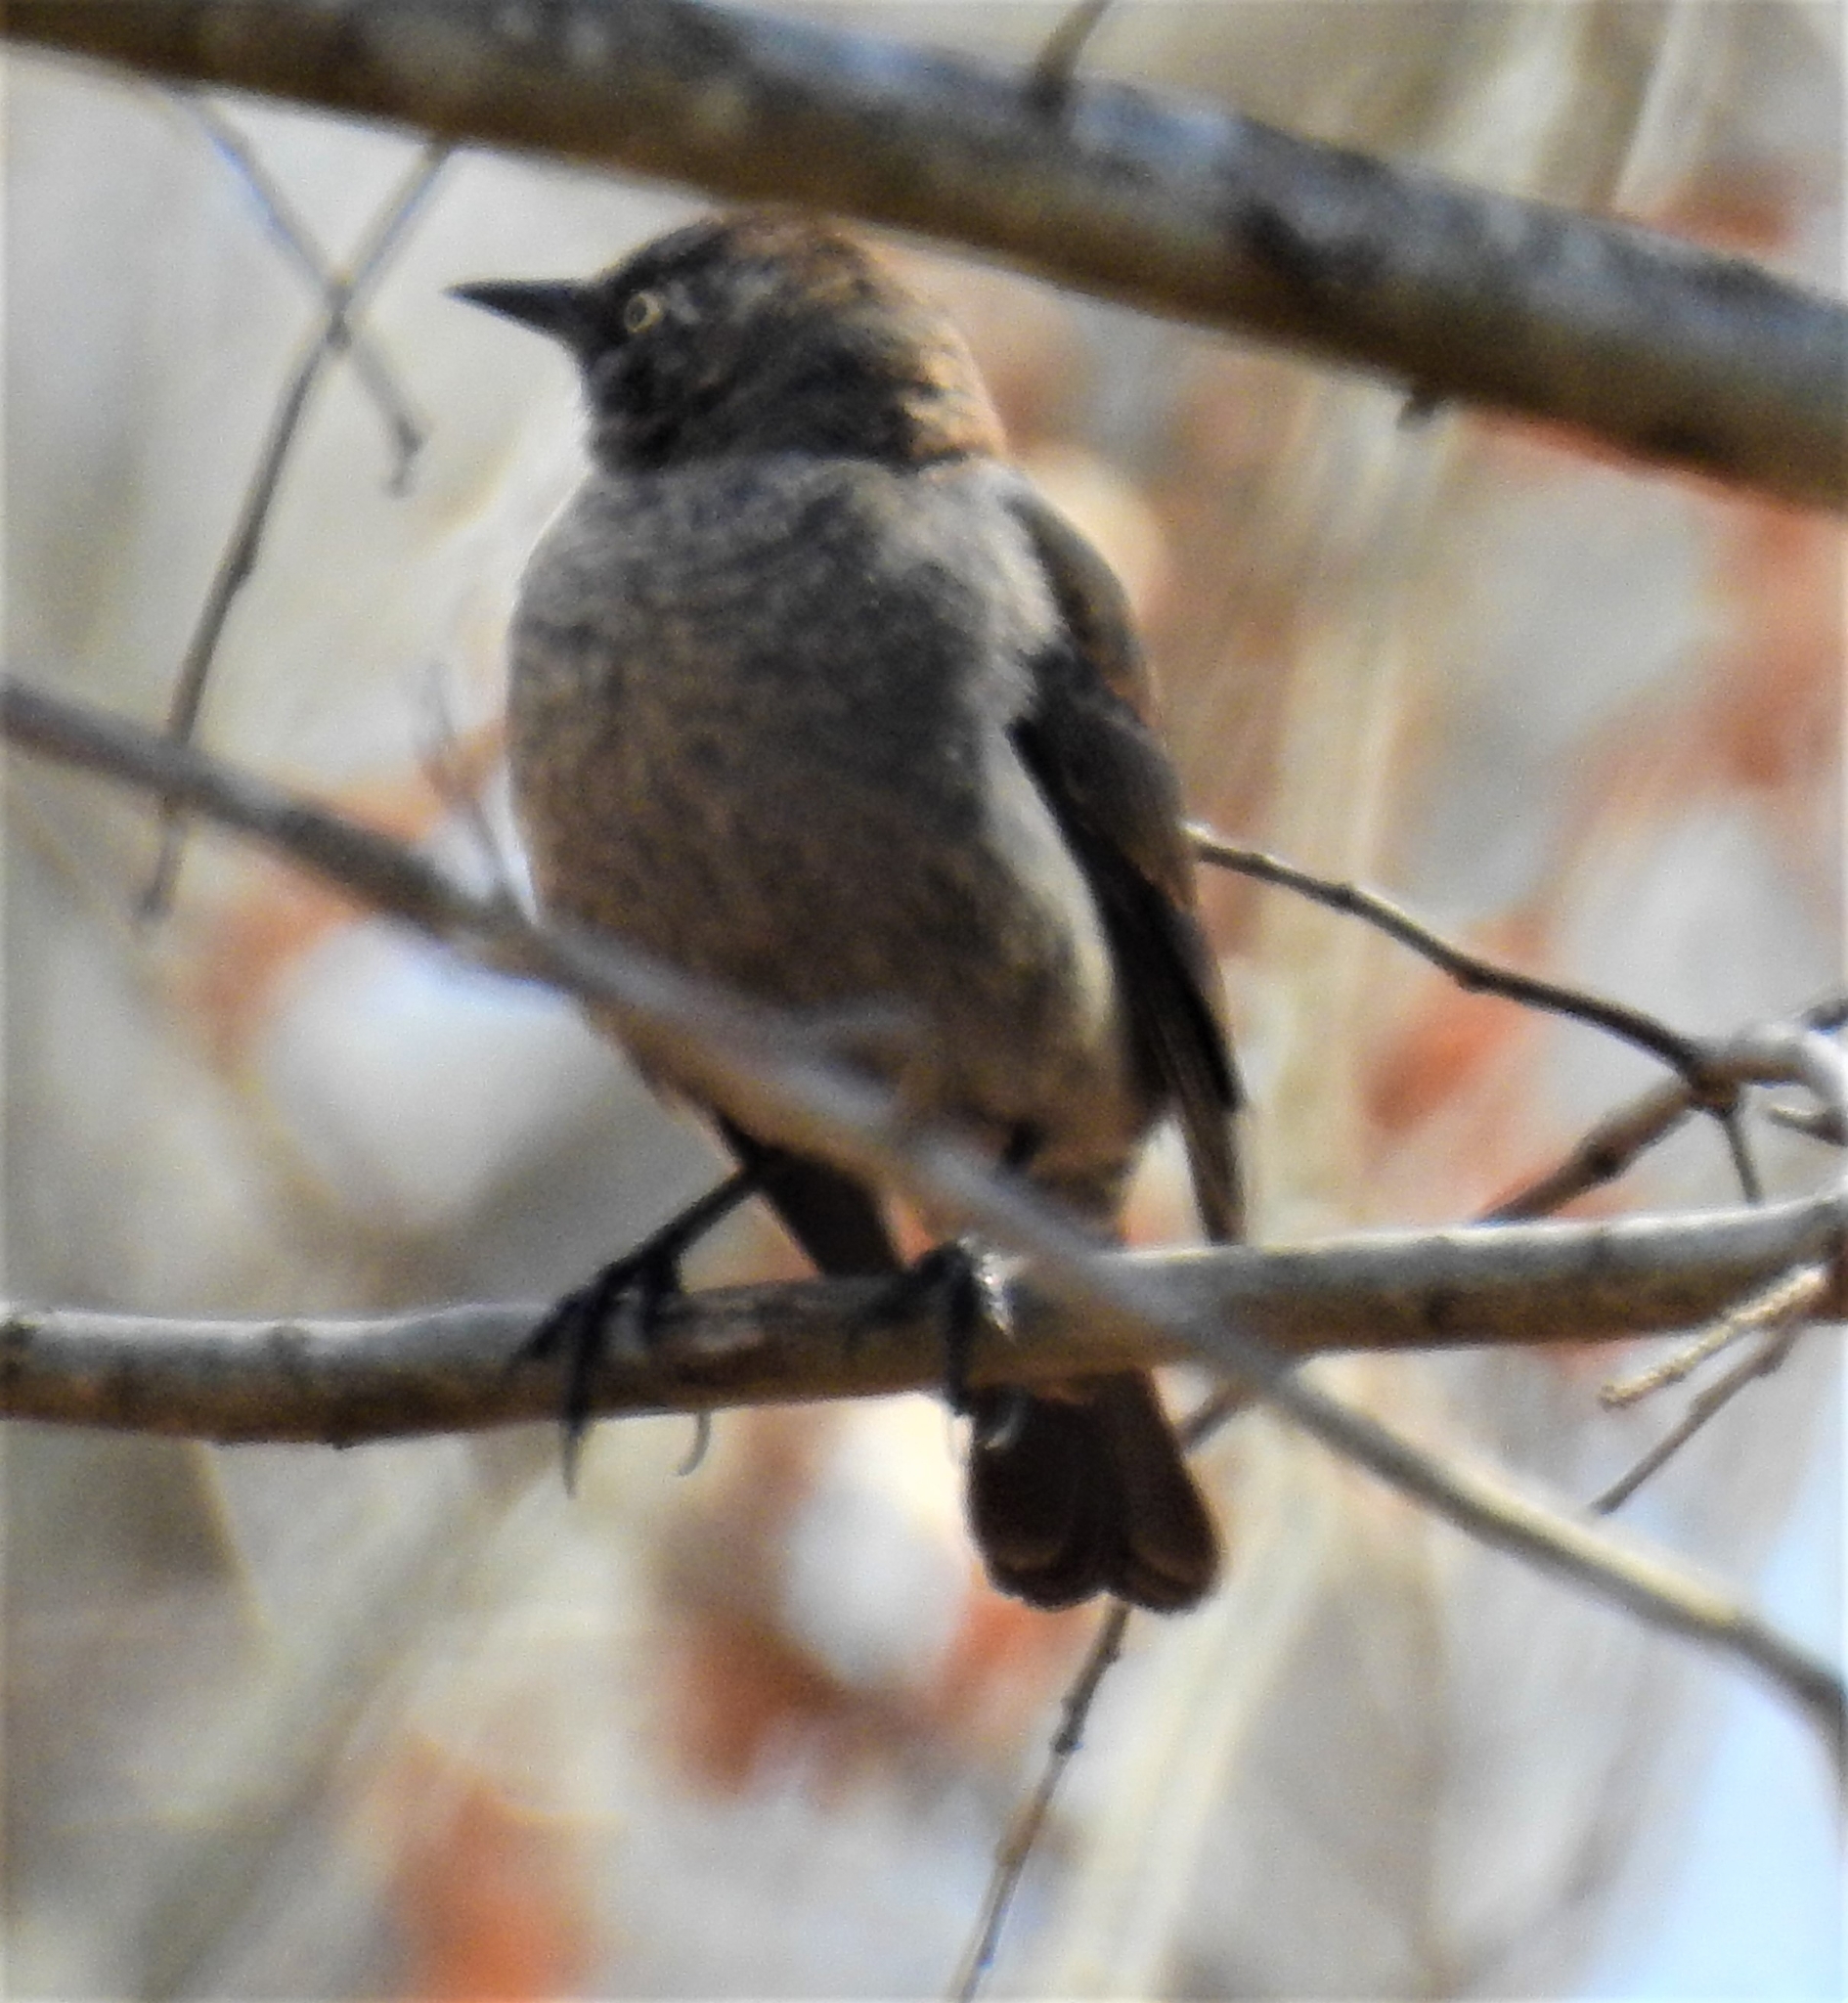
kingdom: Animalia
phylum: Chordata
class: Aves
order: Passeriformes
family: Icteridae
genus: Euphagus
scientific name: Euphagus carolinus
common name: Rusty blackbird
